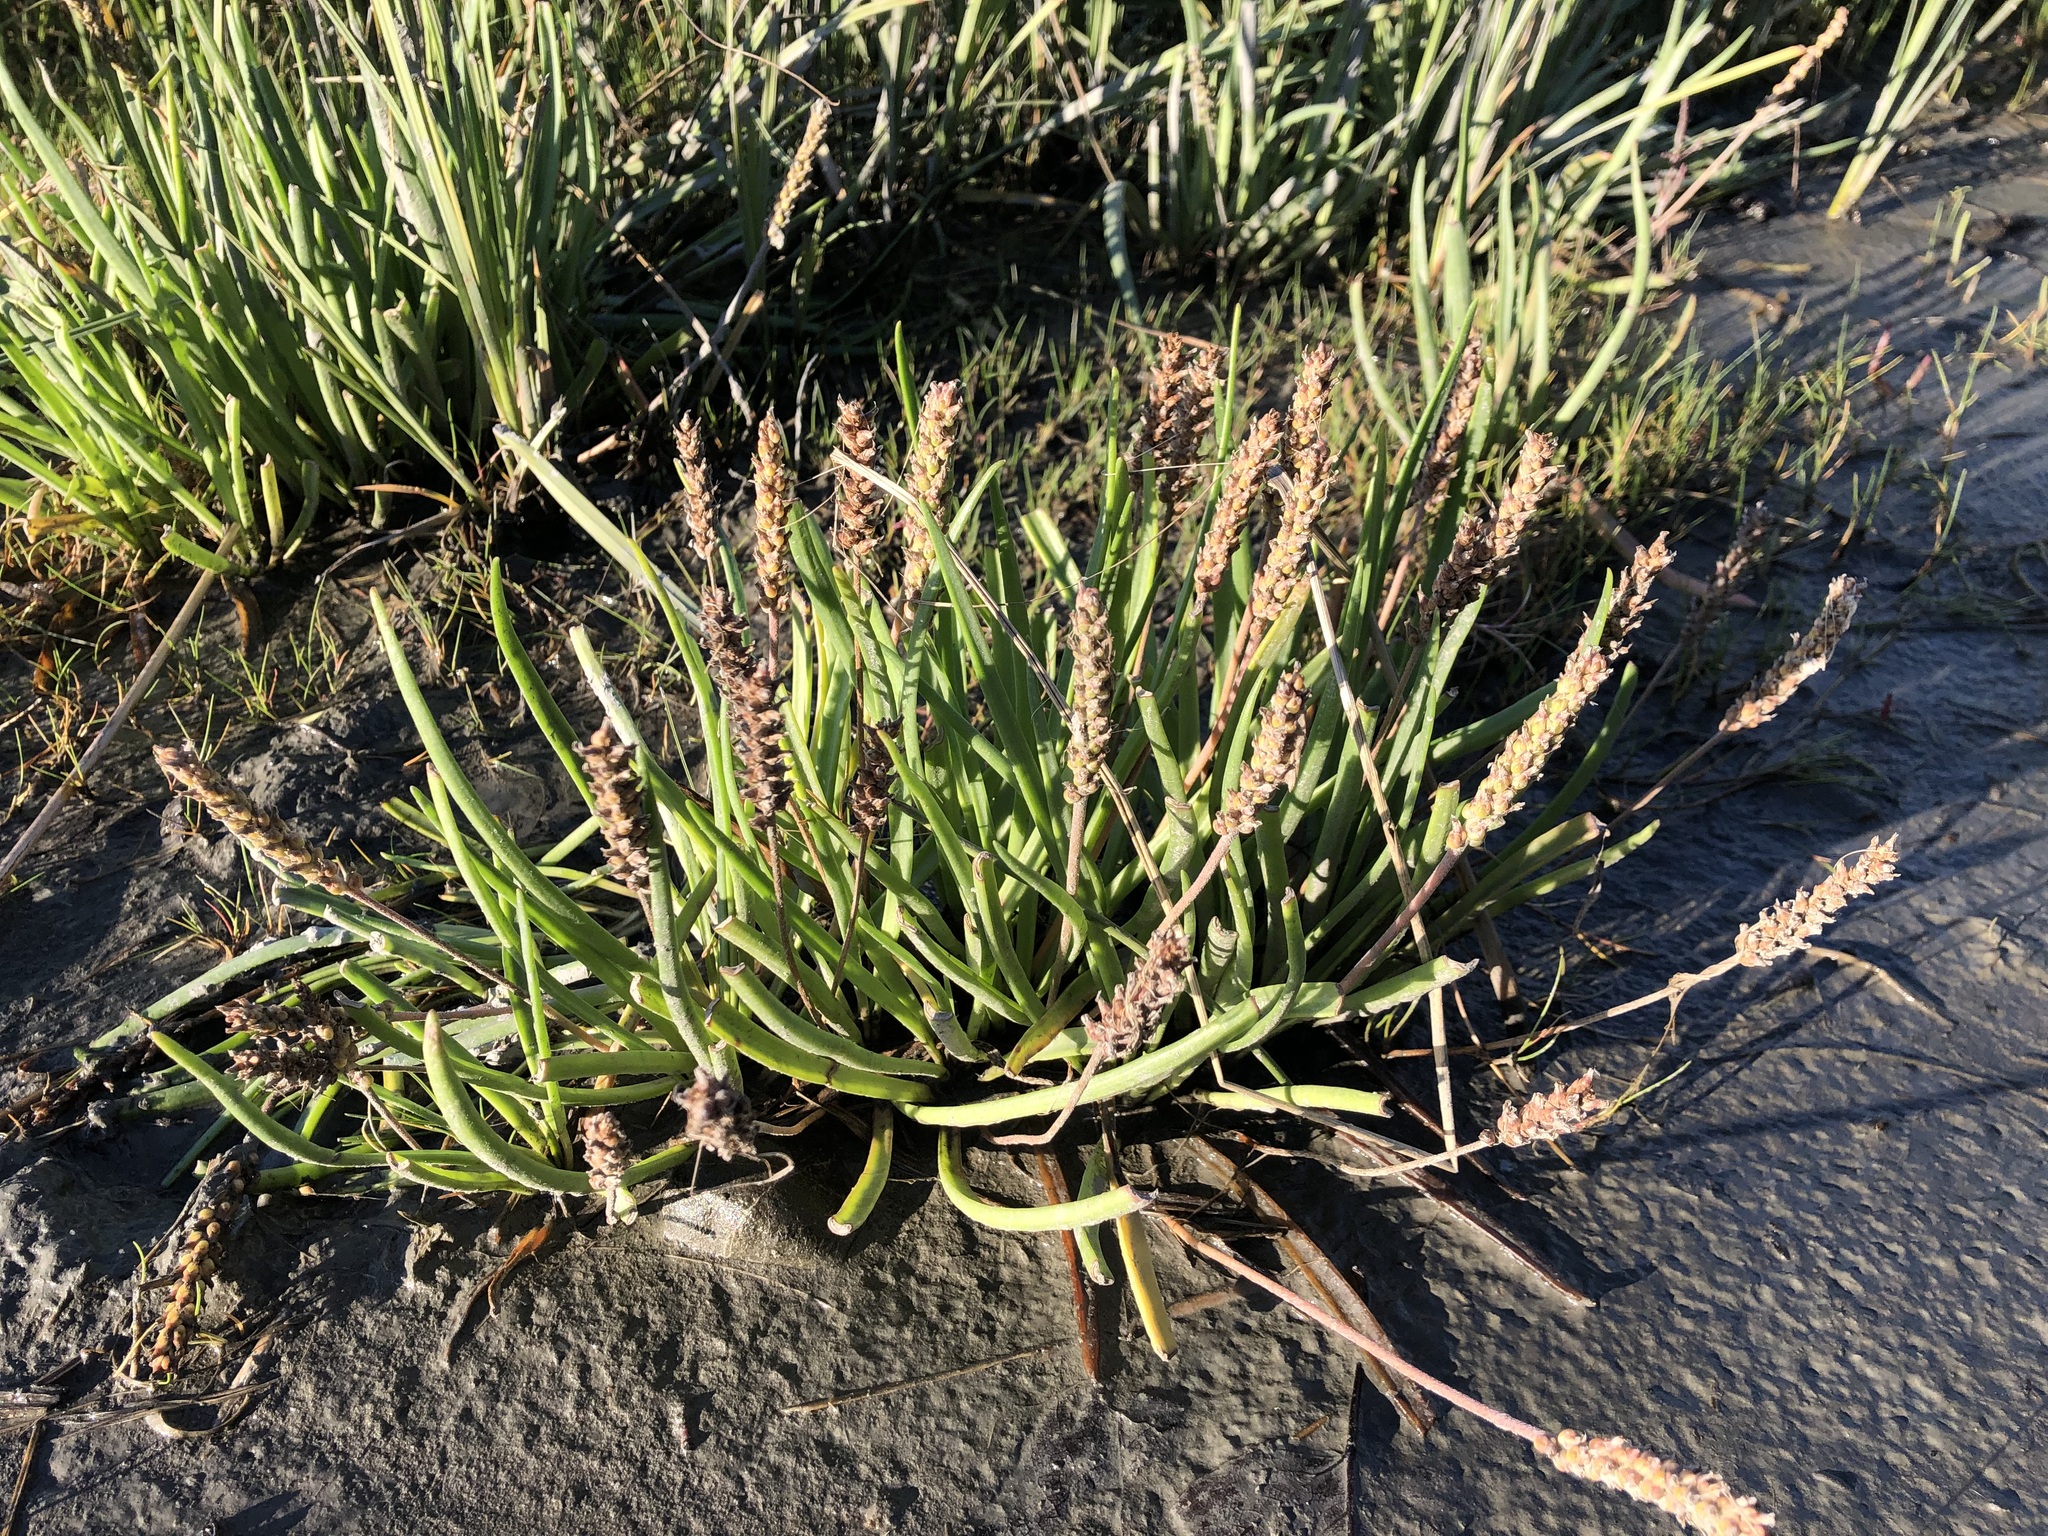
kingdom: Plantae
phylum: Tracheophyta
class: Magnoliopsida
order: Lamiales
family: Plantaginaceae
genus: Plantago
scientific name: Plantago maritima
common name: Sea plantain
